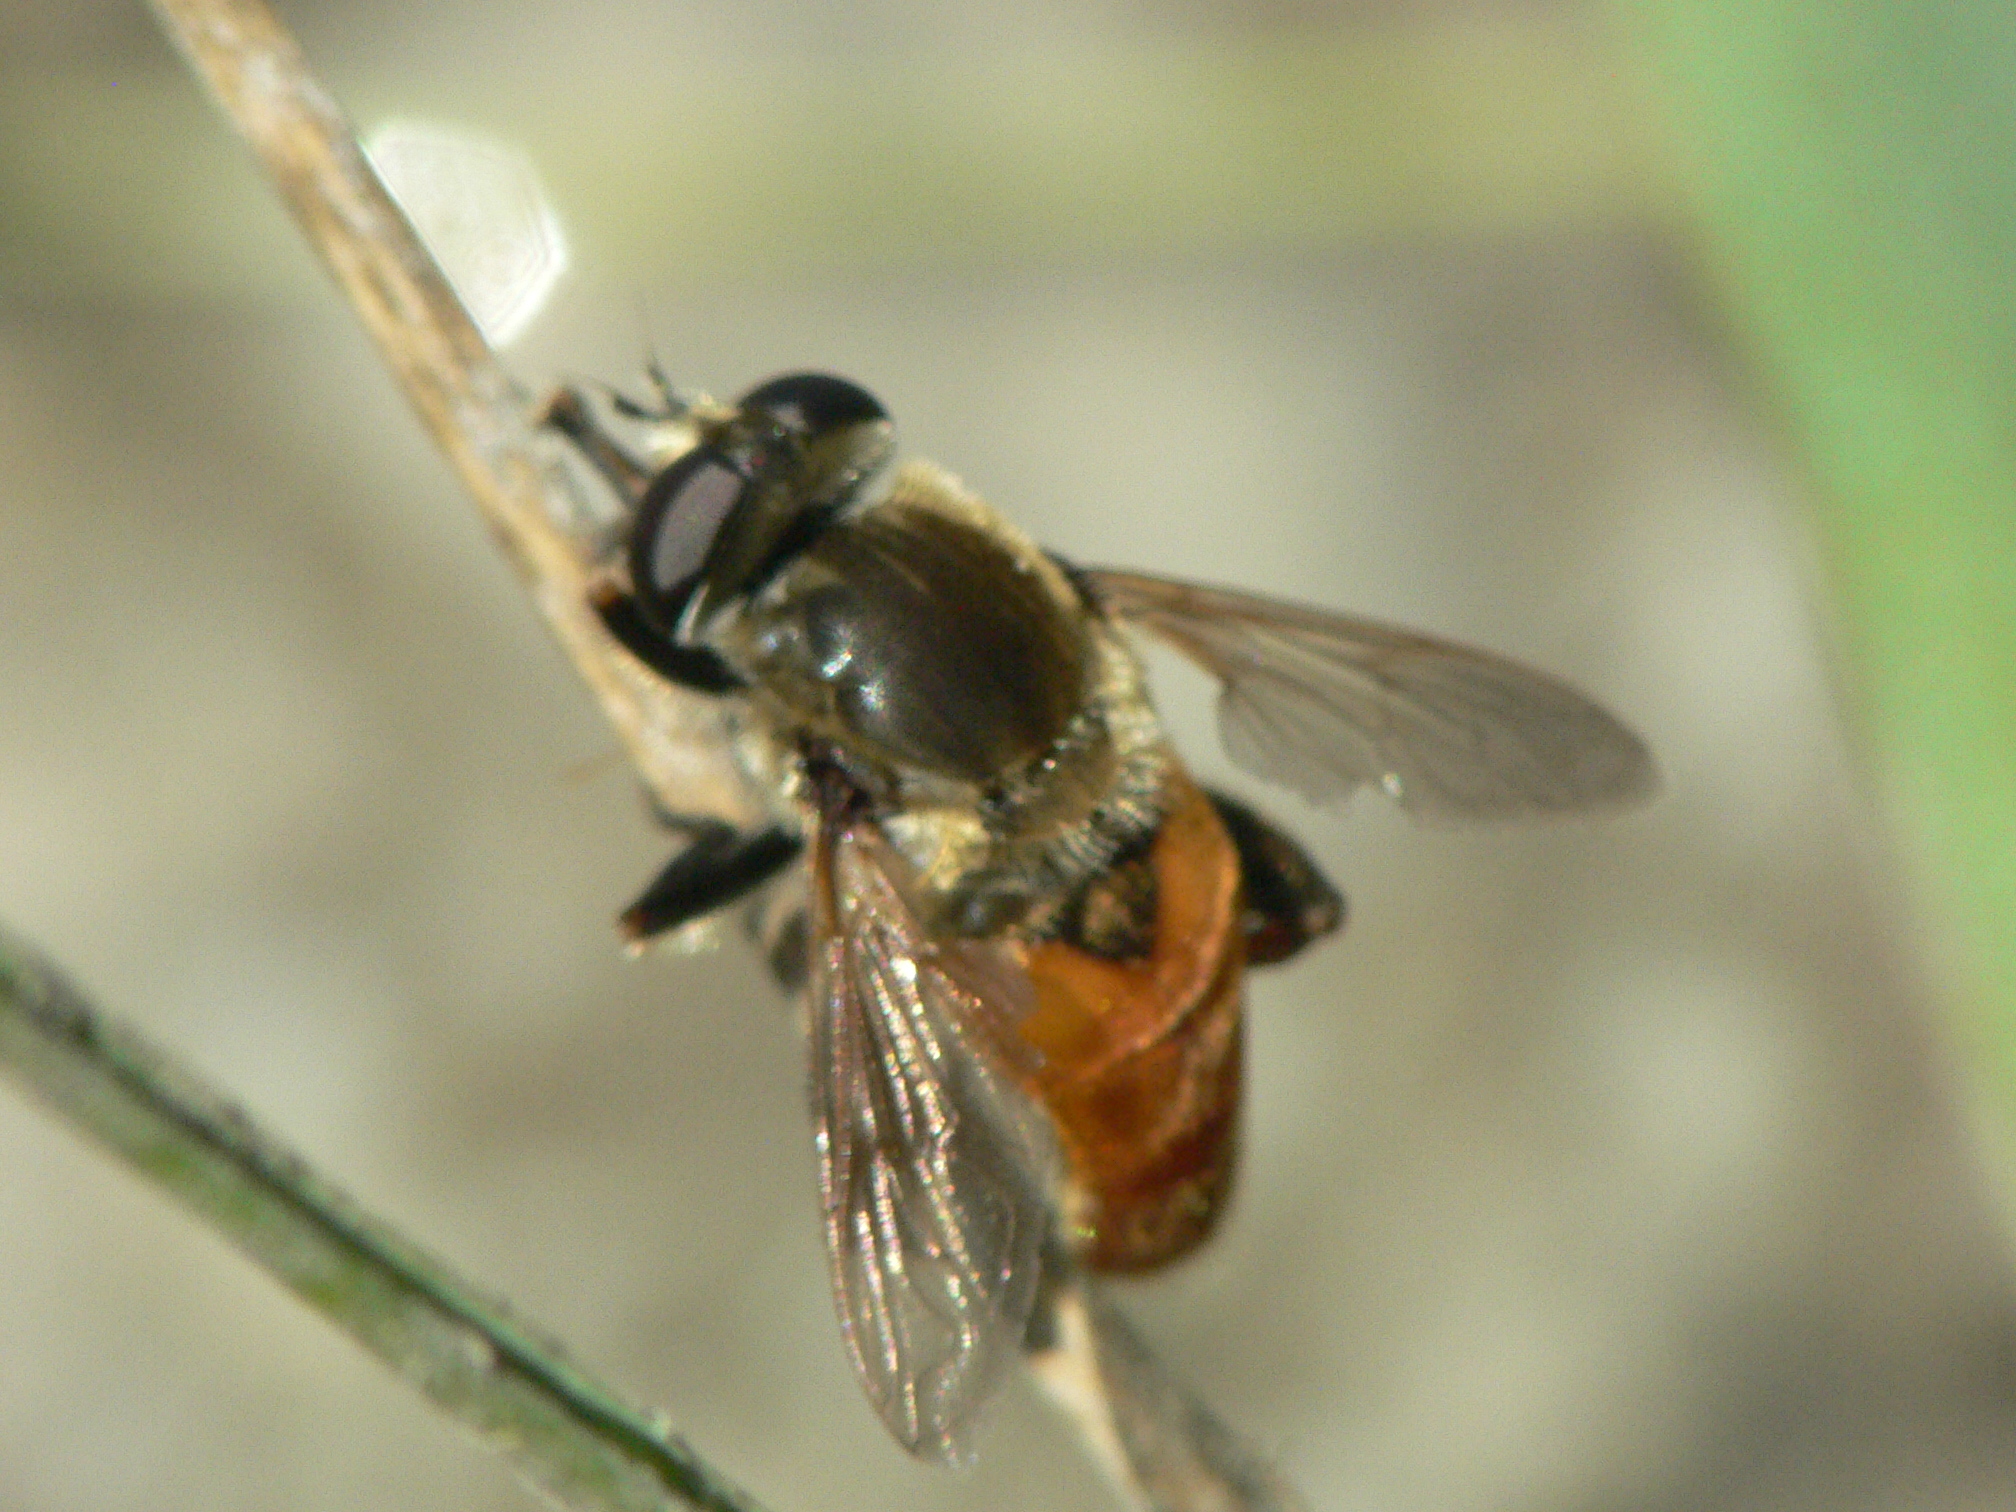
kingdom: Animalia
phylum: Arthropoda
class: Insecta
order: Diptera
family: Syrphidae
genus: Polydontomyia
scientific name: Polydontomyia curvipes
